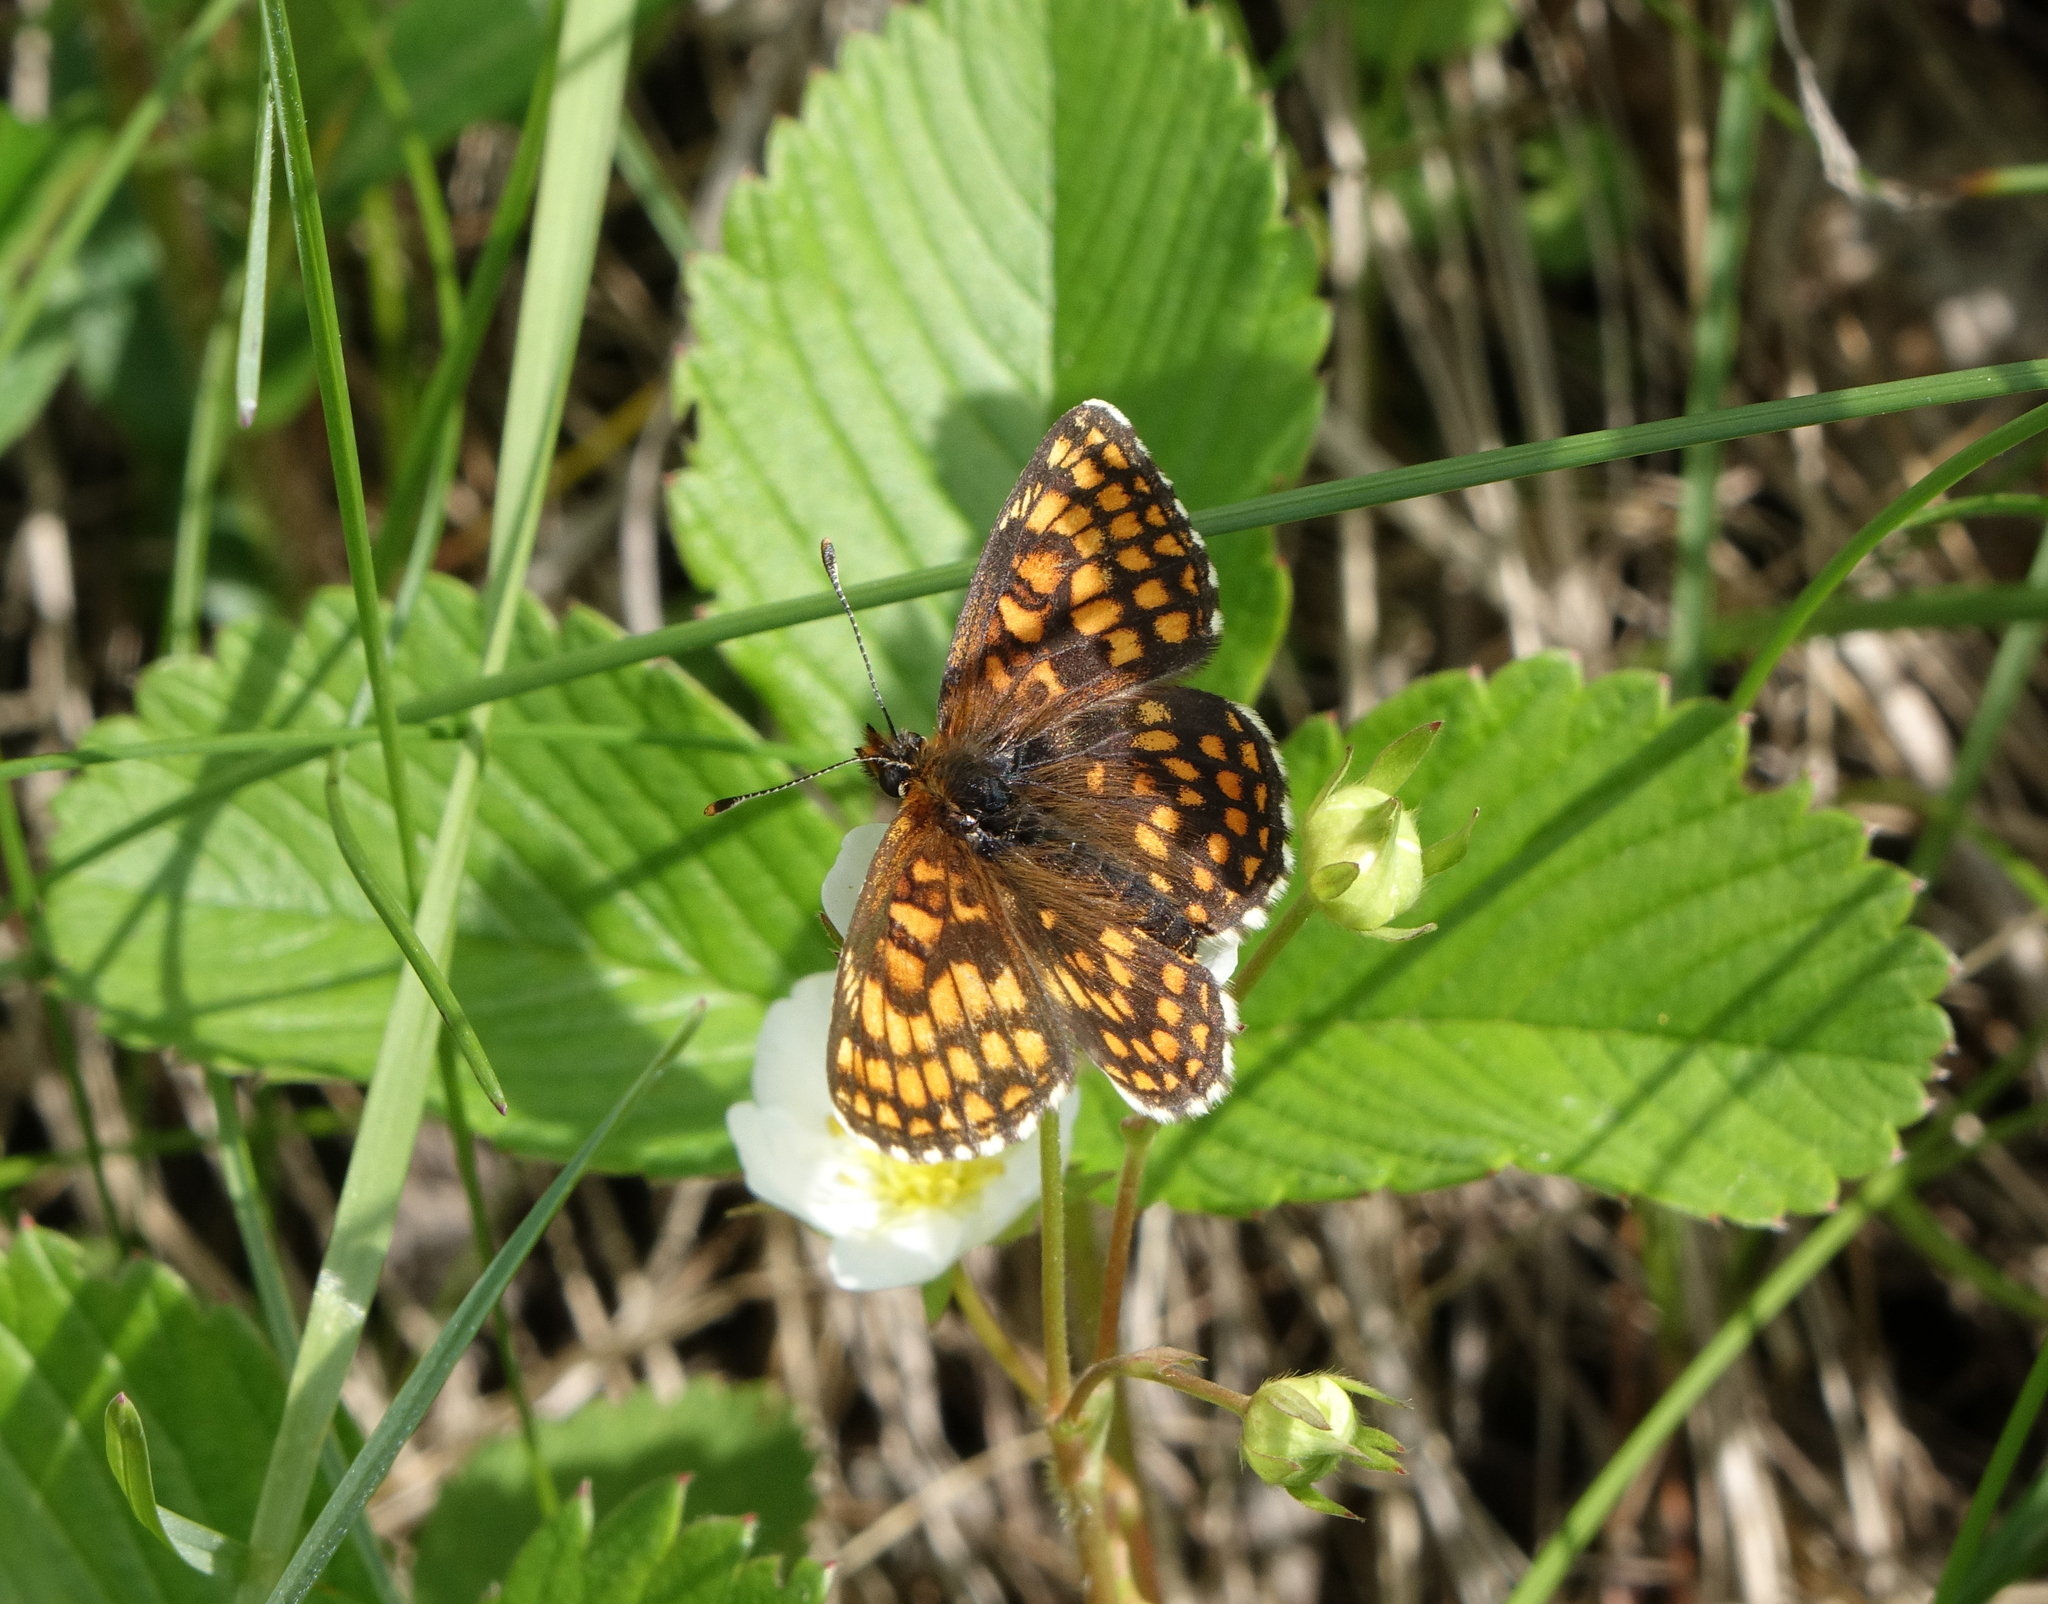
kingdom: Animalia
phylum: Arthropoda
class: Insecta
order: Lepidoptera
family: Nymphalidae
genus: Melitaea
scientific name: Melitaea
